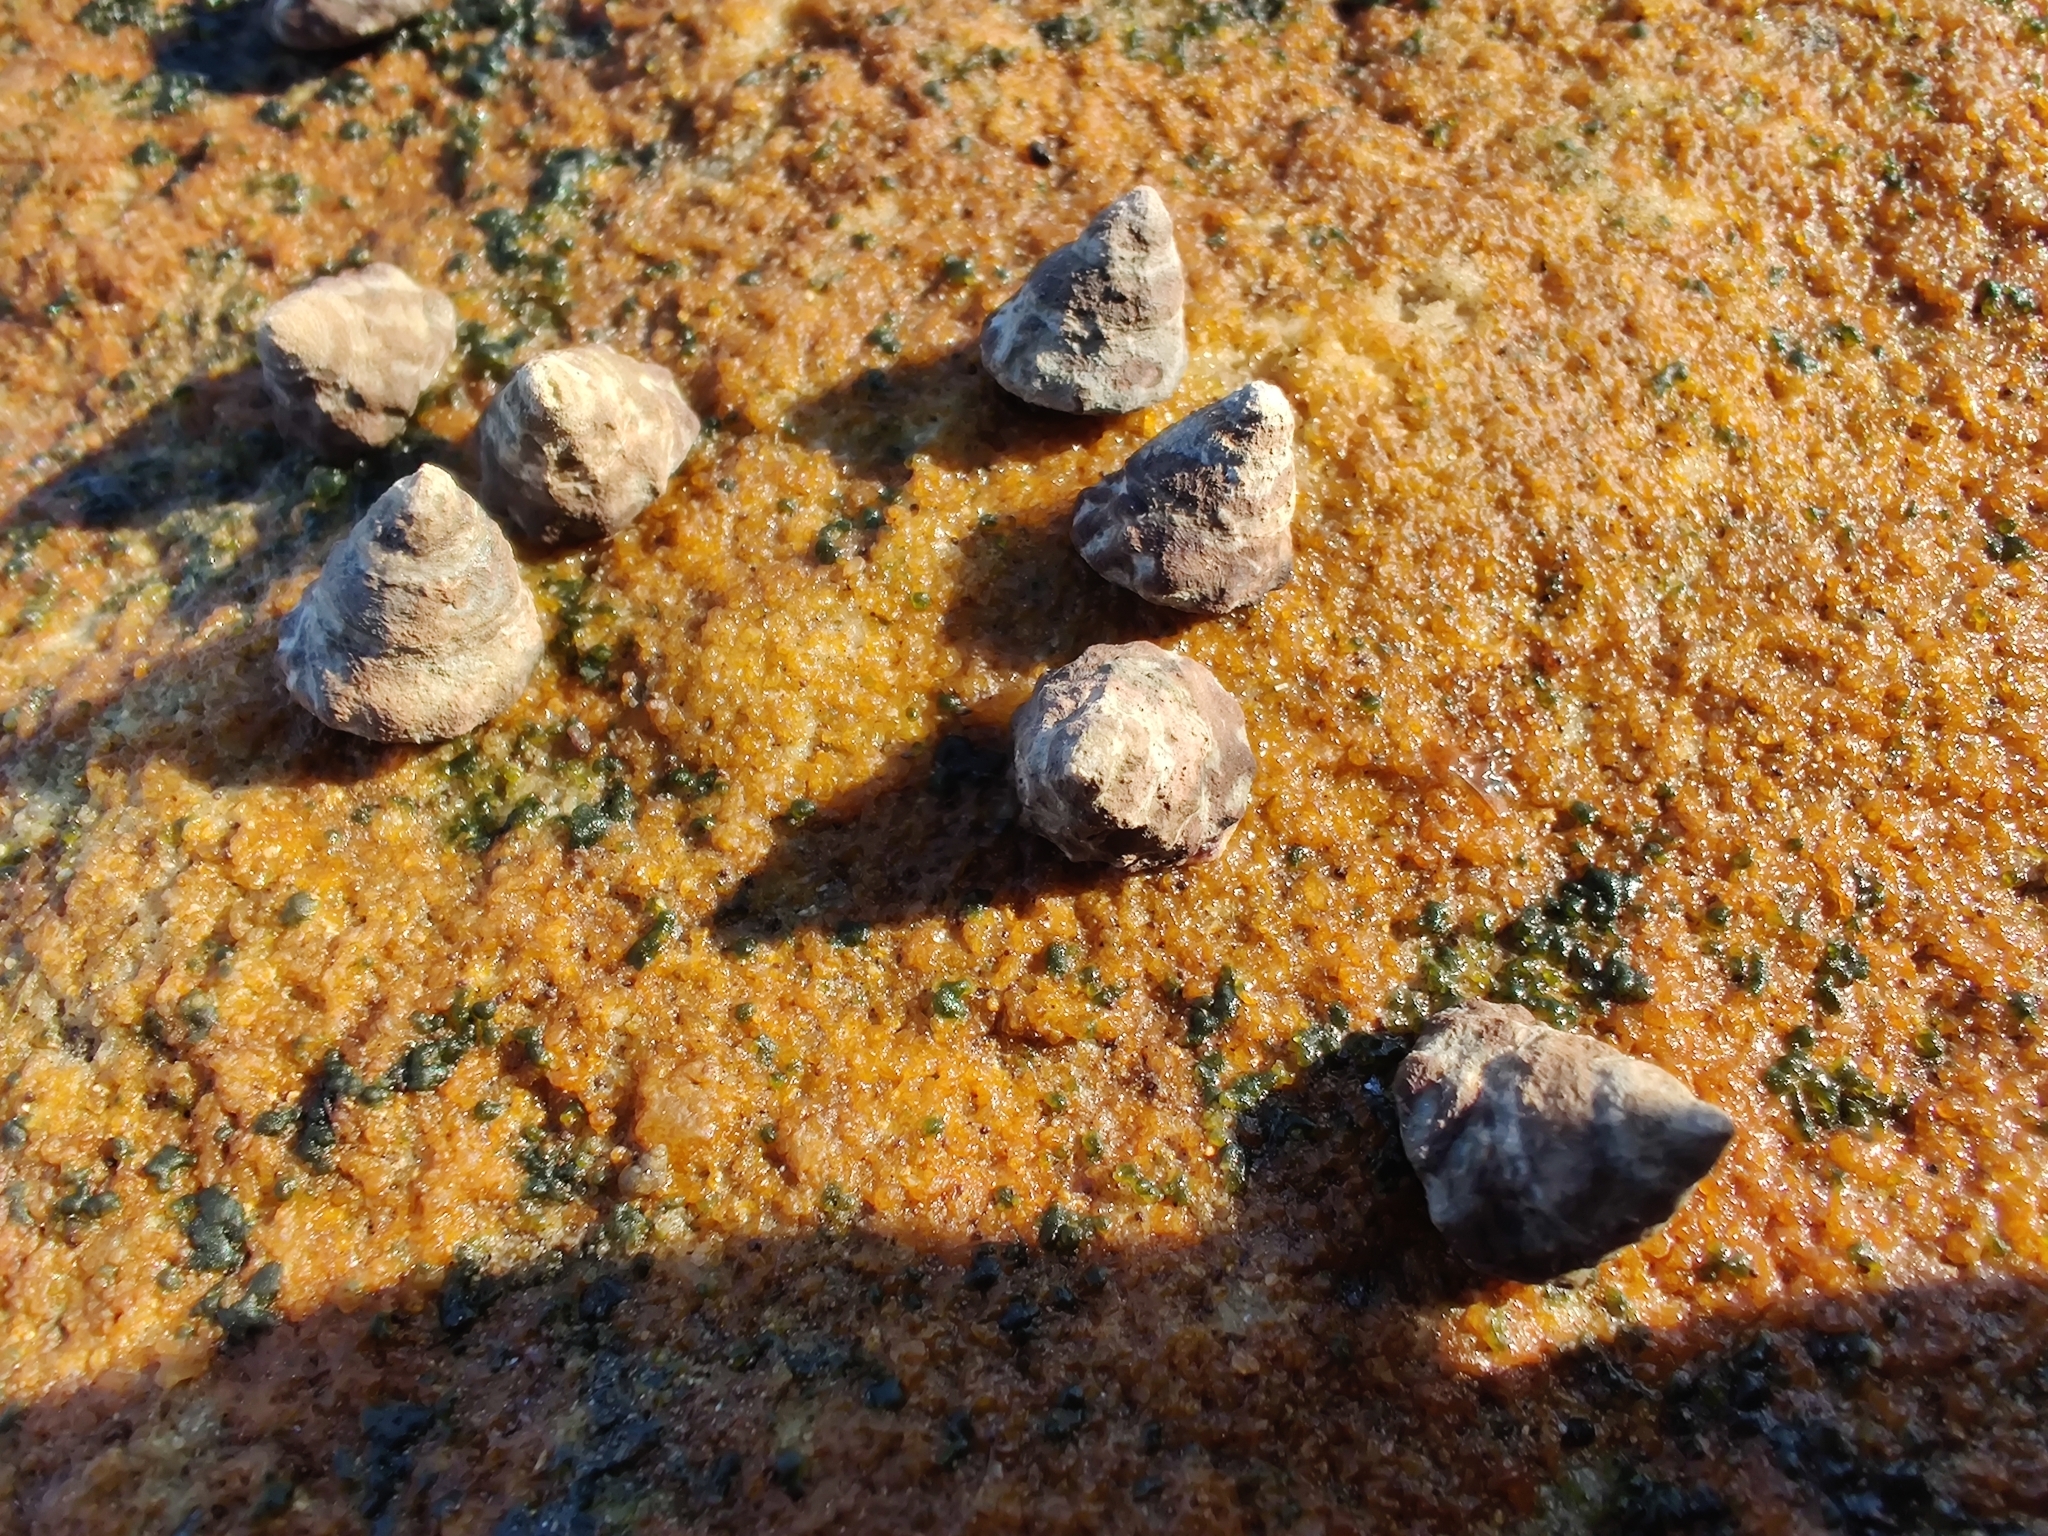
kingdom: Animalia
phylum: Mollusca
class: Gastropoda
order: Littorinimorpha
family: Littorinidae
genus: Bembicium
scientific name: Bembicium auratum
